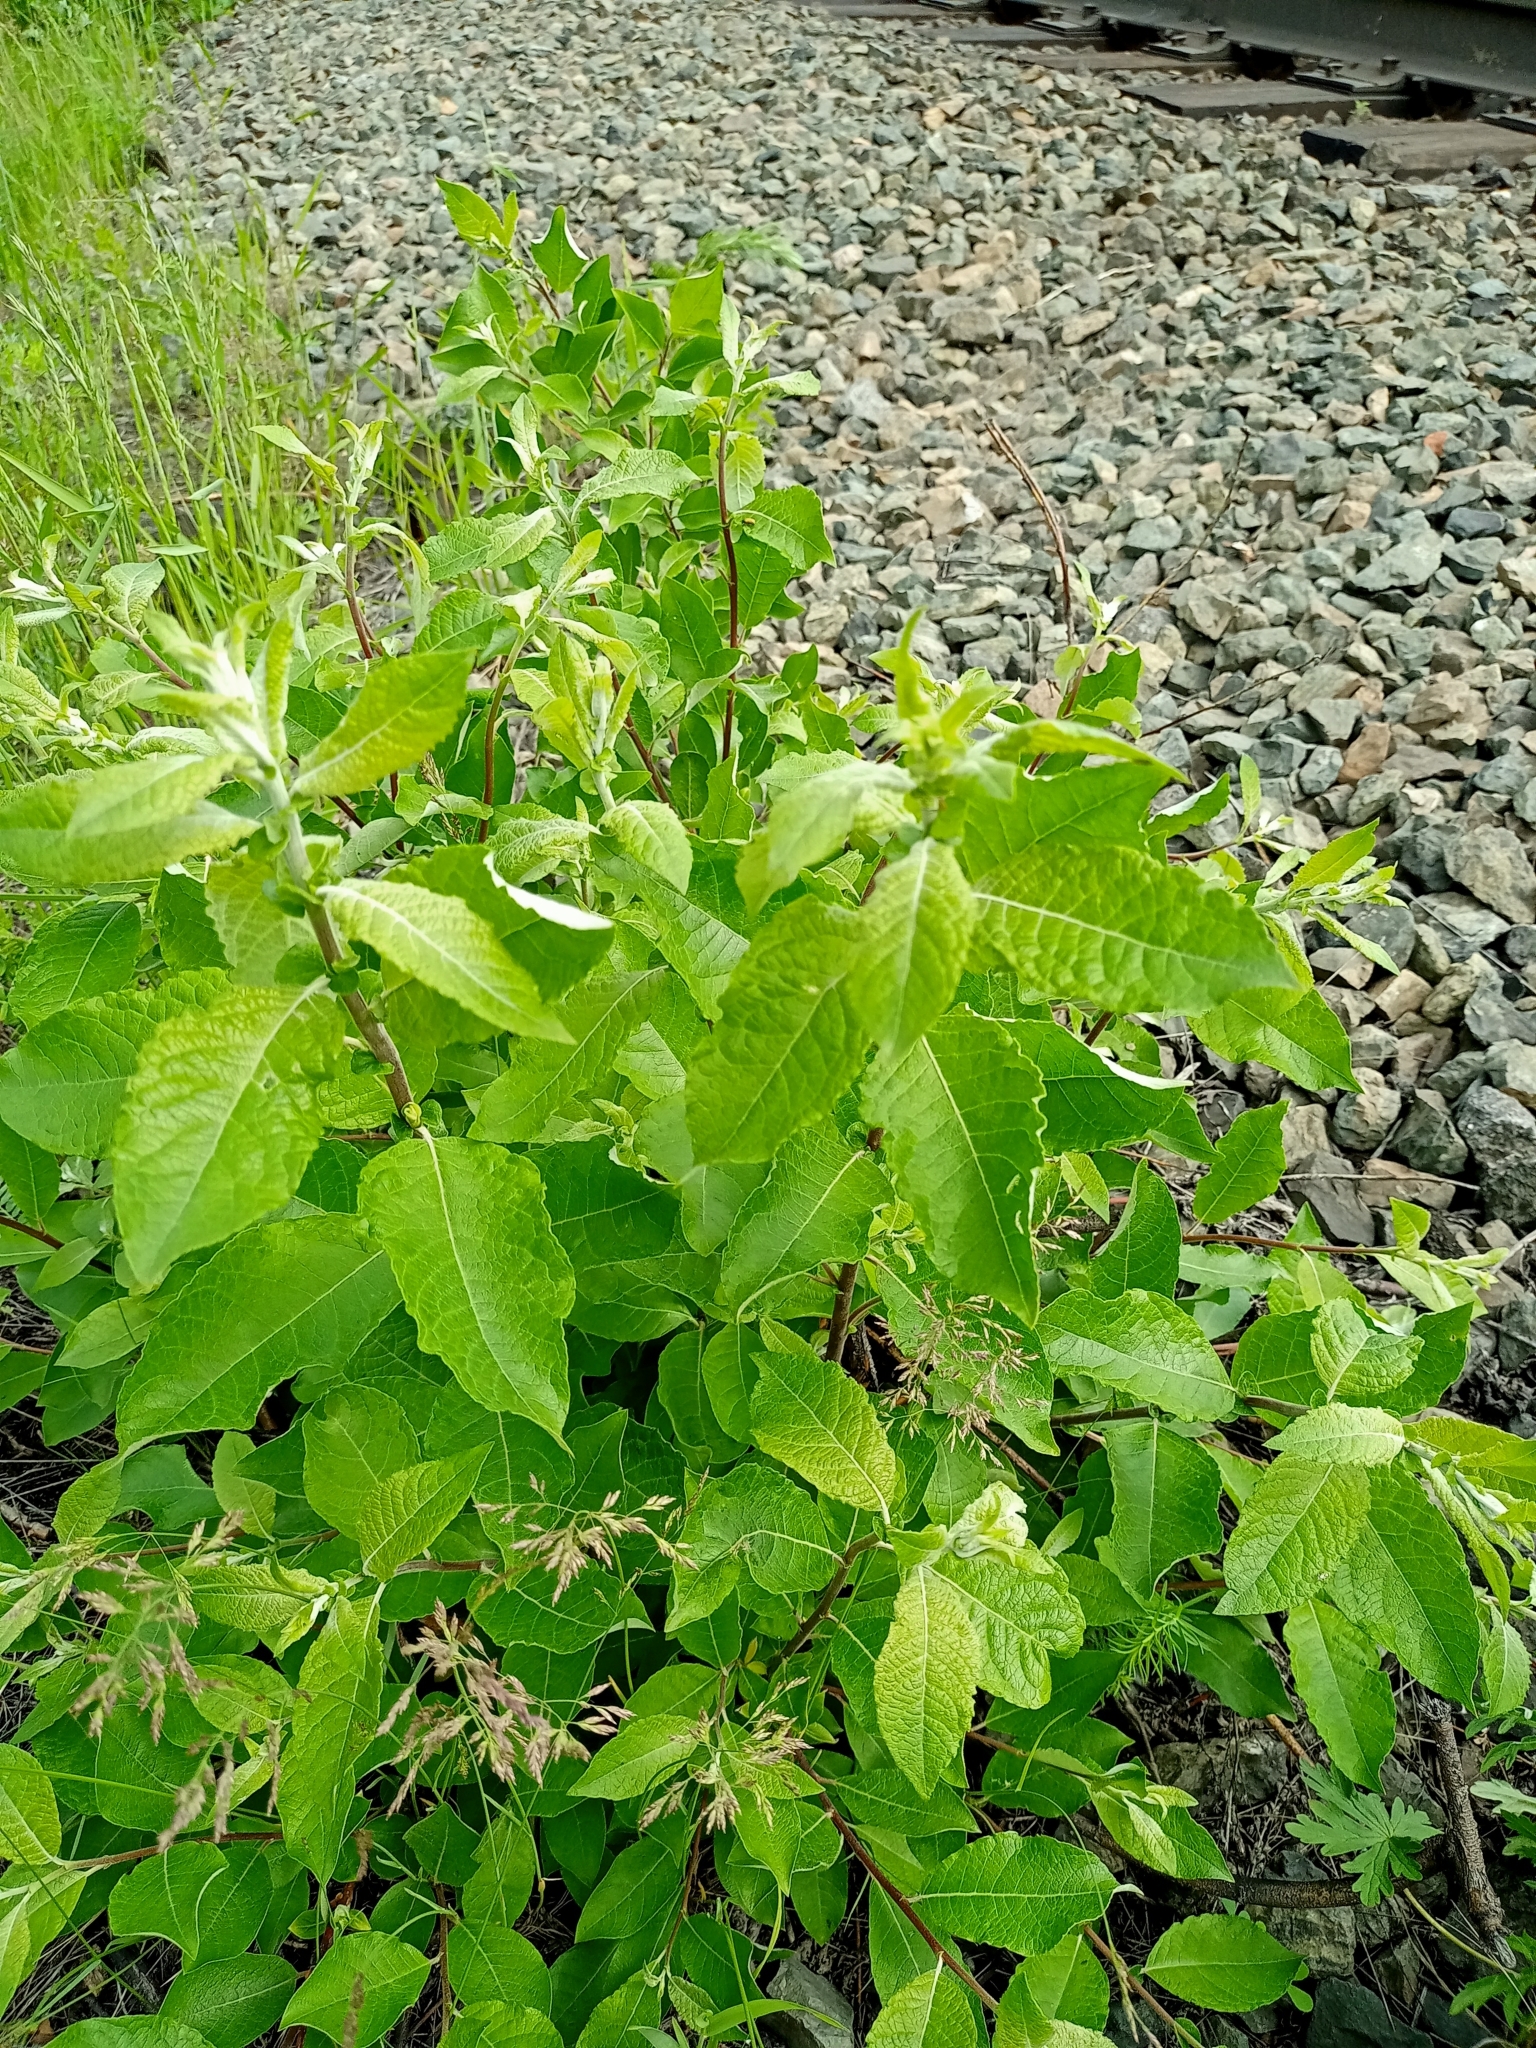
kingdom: Plantae
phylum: Tracheophyta
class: Magnoliopsida
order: Malpighiales
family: Salicaceae
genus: Salix
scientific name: Salix caprea
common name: Goat willow
